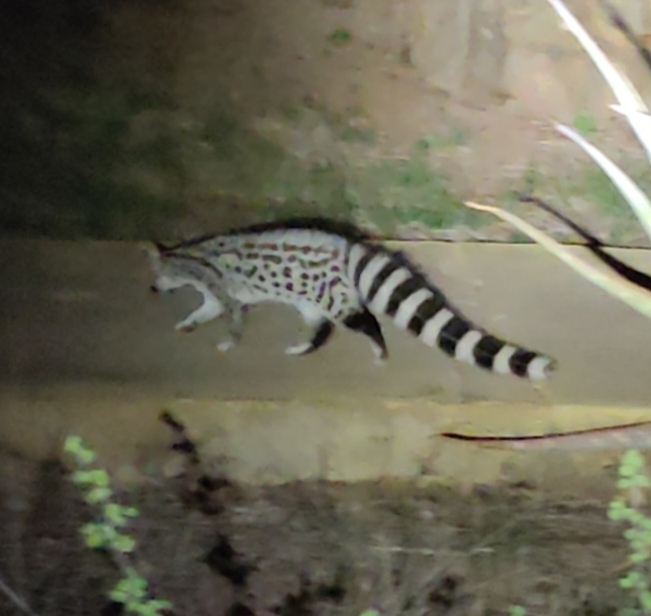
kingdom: Animalia
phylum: Chordata
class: Mammalia
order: Carnivora
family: Viverridae
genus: Genetta
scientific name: Genetta genetta
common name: Common genet
